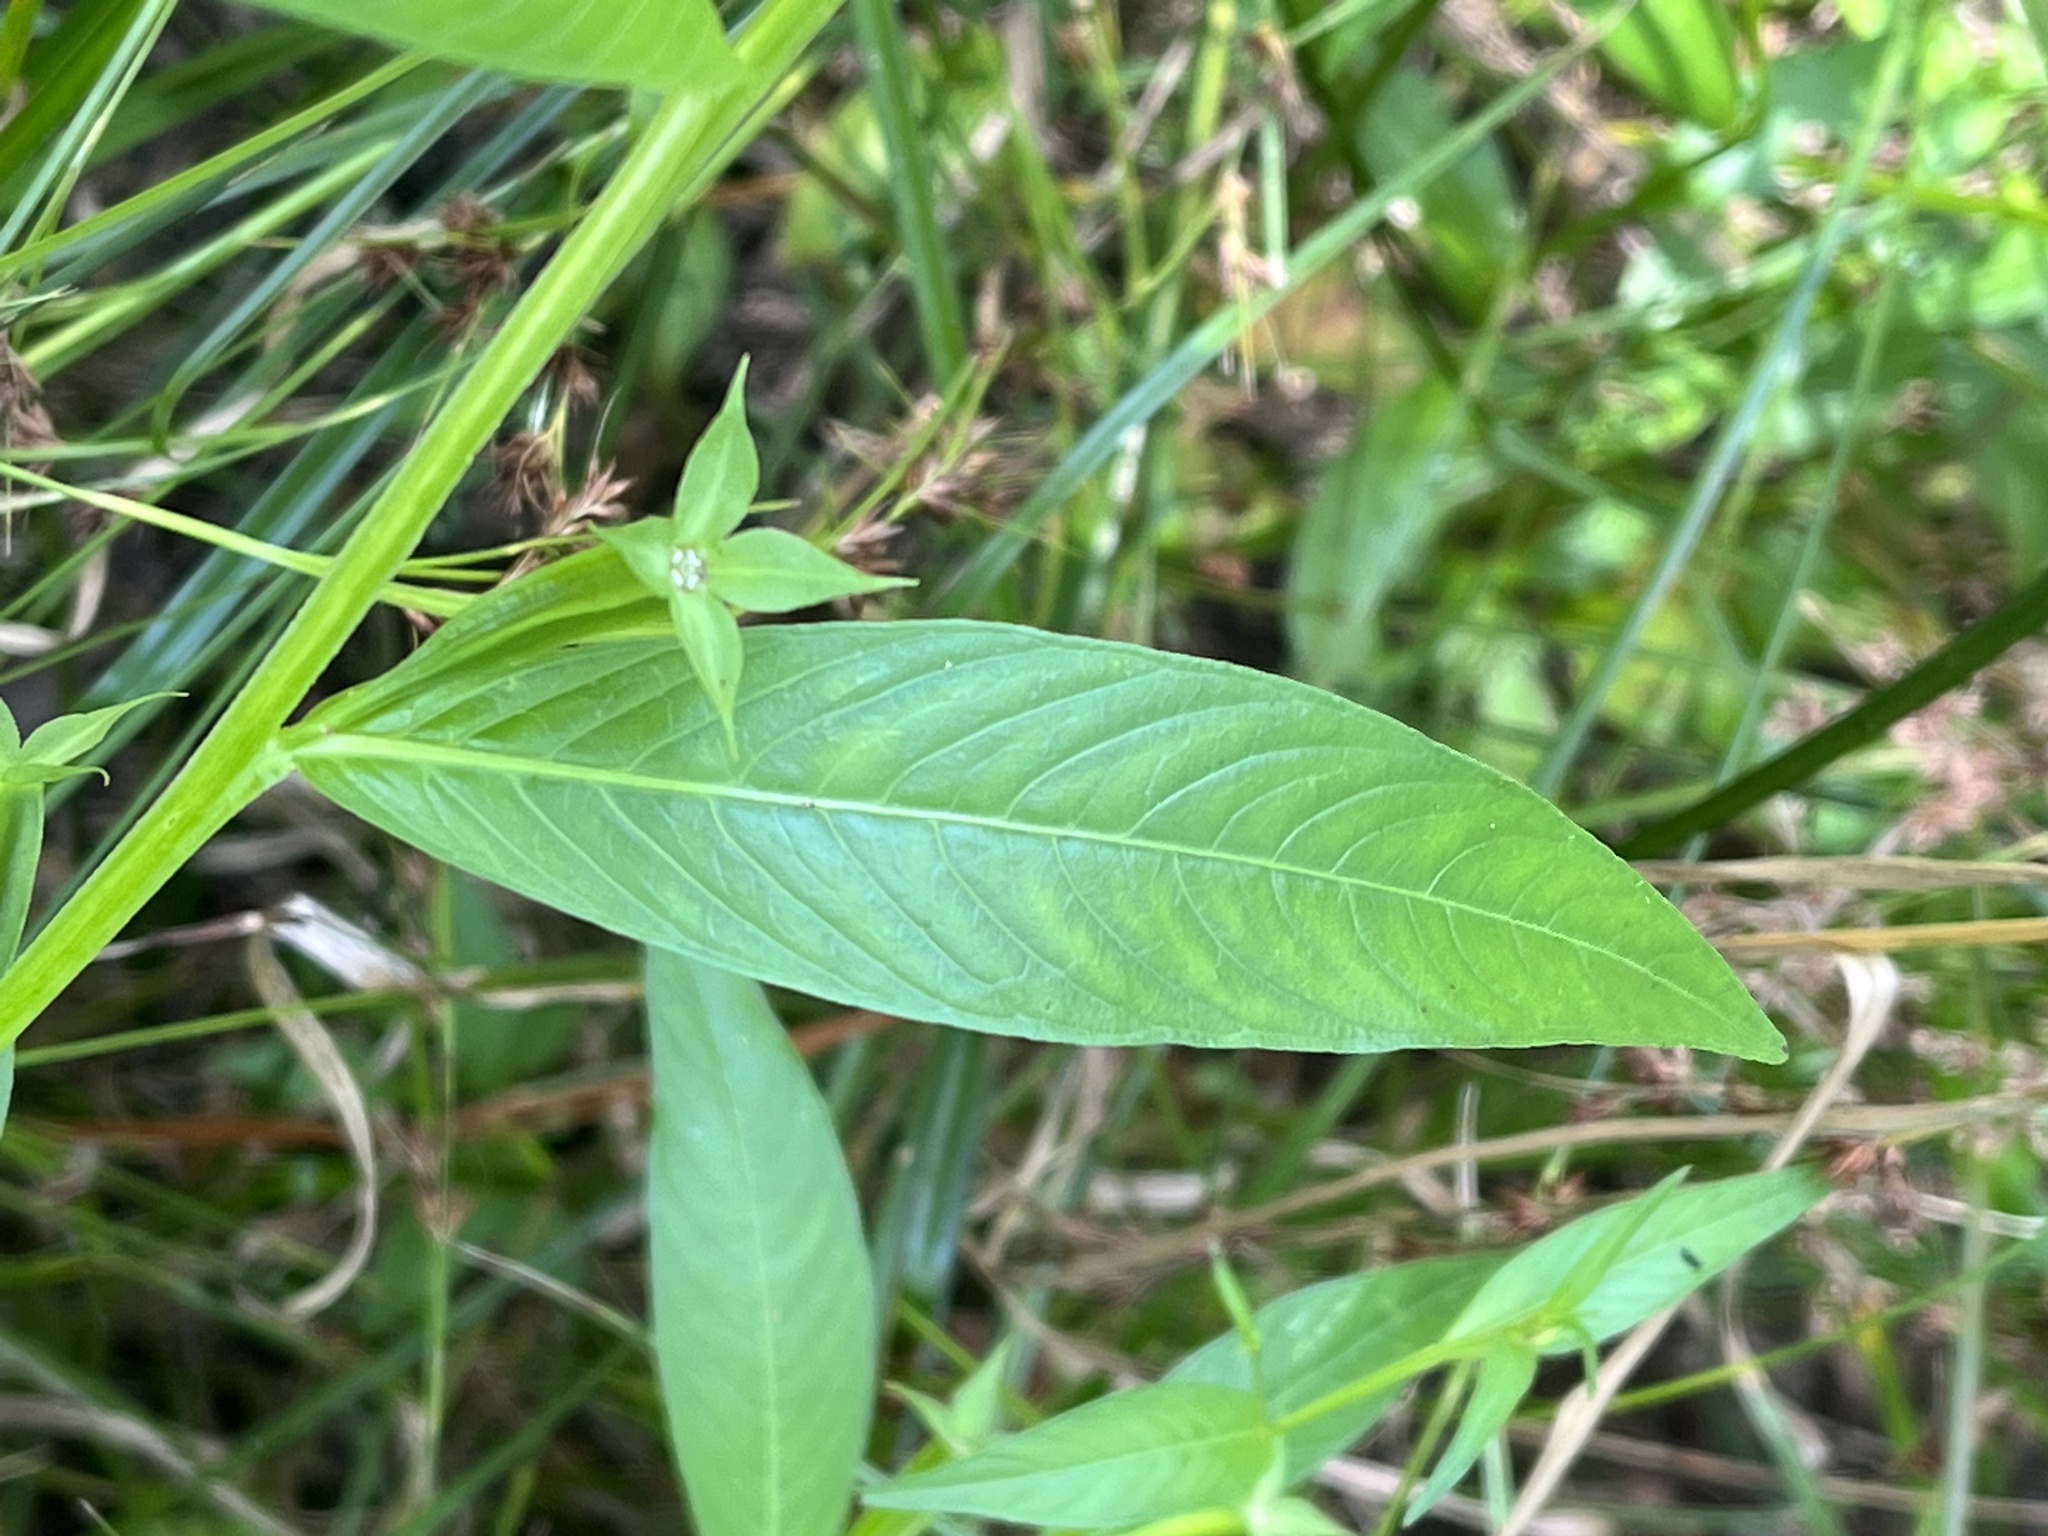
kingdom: Plantae
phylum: Tracheophyta
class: Magnoliopsida
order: Myrtales
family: Onagraceae
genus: Ludwigia
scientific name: Ludwigia decurrens
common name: Winged water-primrose
